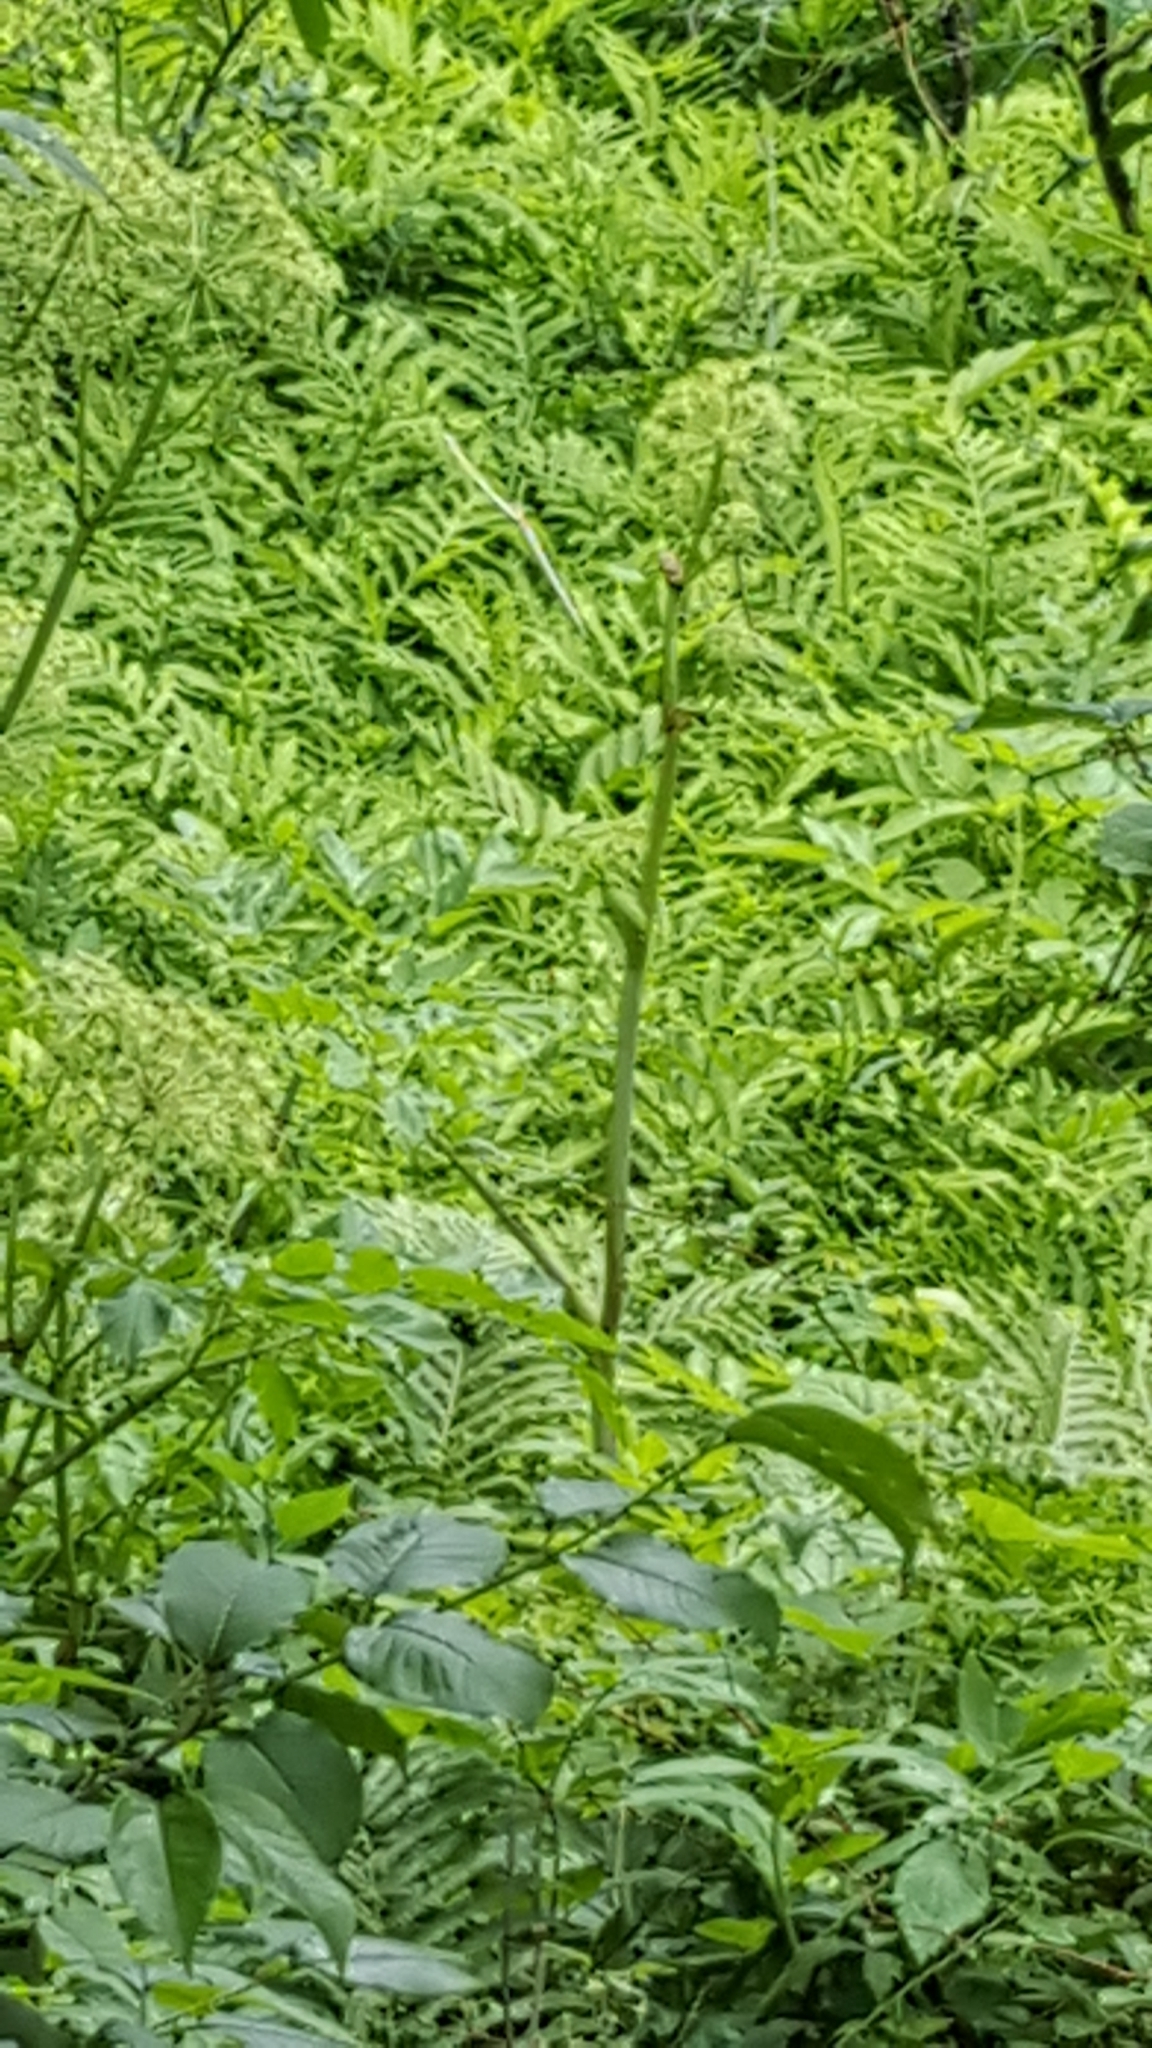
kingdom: Plantae
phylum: Tracheophyta
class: Polypodiopsida
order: Polypodiales
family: Onocleaceae
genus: Onoclea
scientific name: Onoclea sensibilis
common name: Sensitive fern
